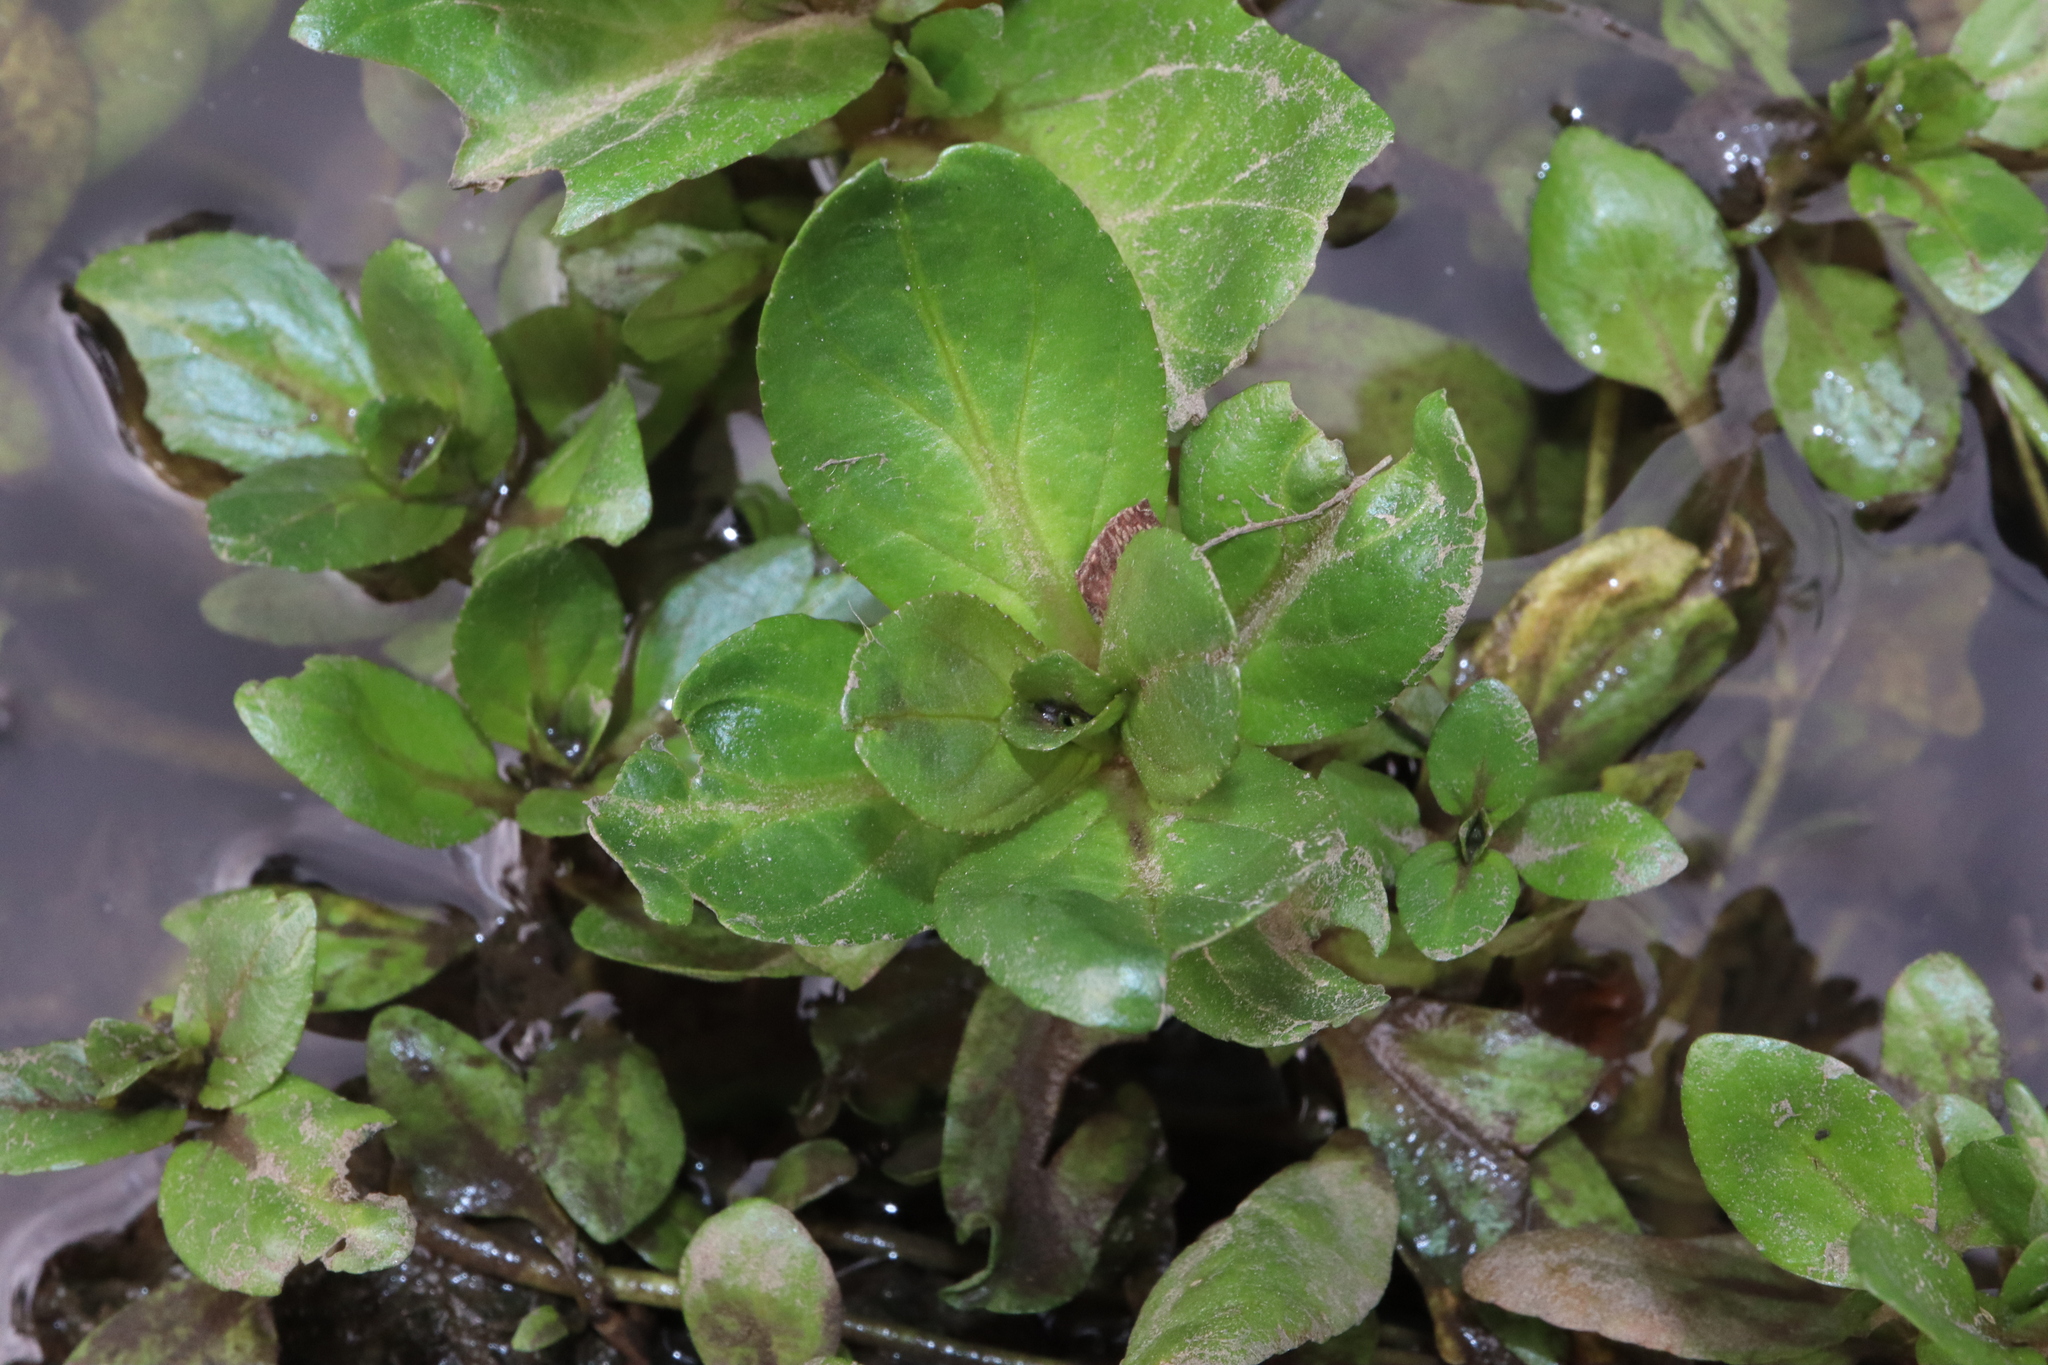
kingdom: Plantae
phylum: Tracheophyta
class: Magnoliopsida
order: Lamiales
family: Plantaginaceae
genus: Veronica
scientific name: Veronica anagallis-aquatica
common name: Water speedwell
